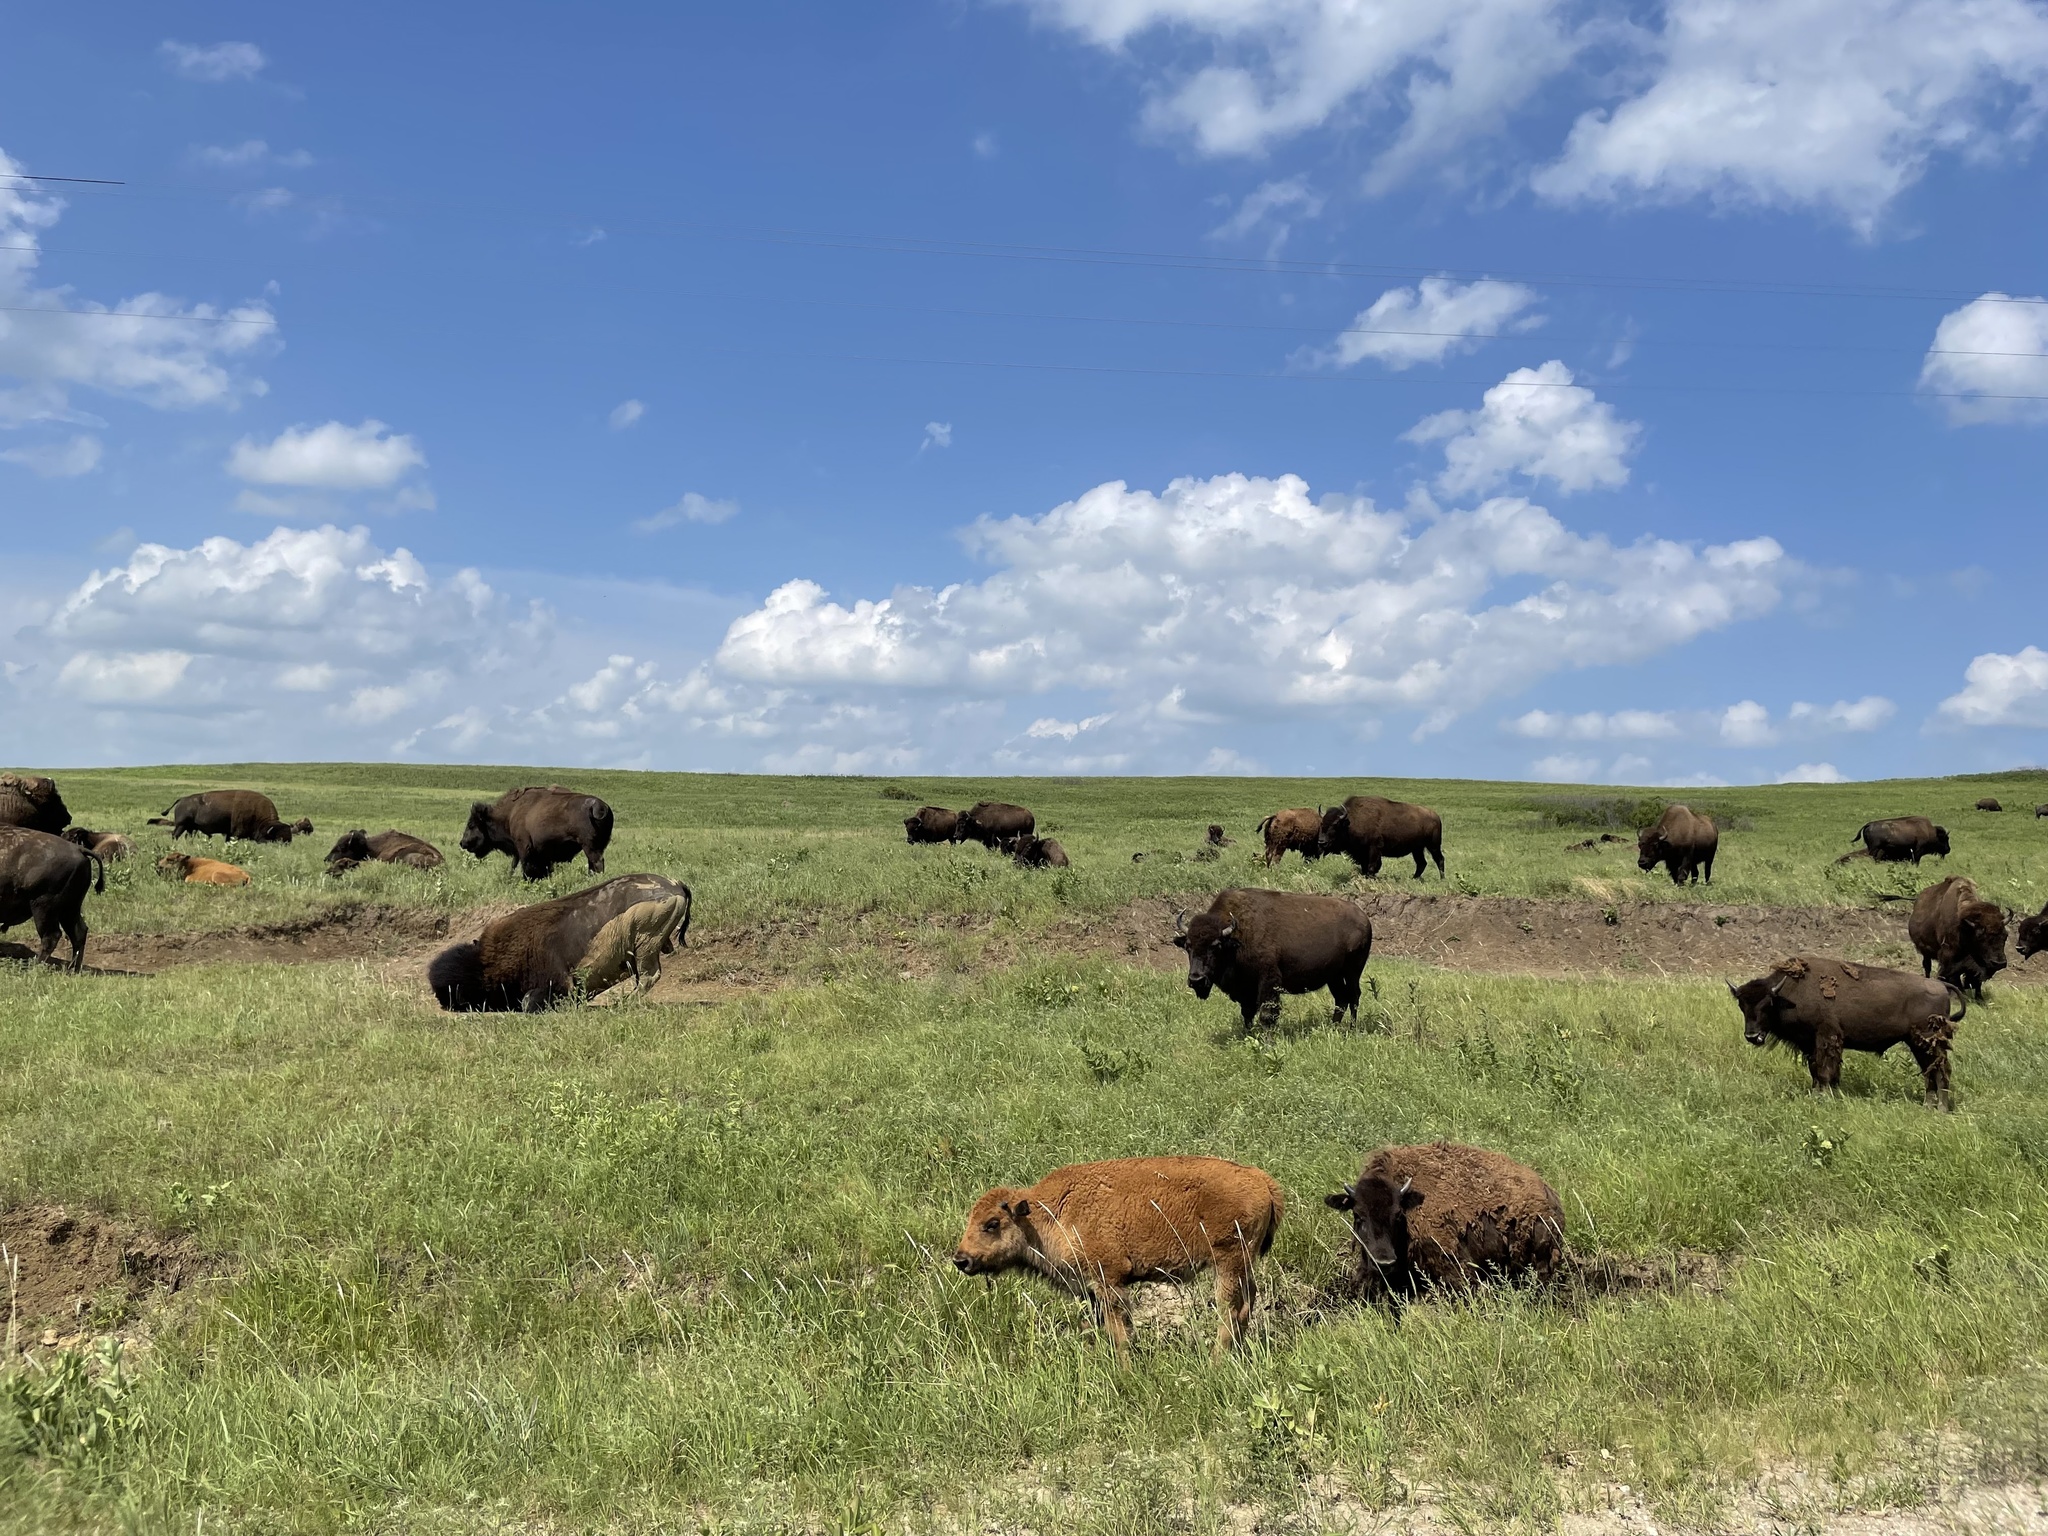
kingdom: Animalia
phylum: Chordata
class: Mammalia
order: Artiodactyla
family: Bovidae
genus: Bison
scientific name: Bison bison
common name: American bison
